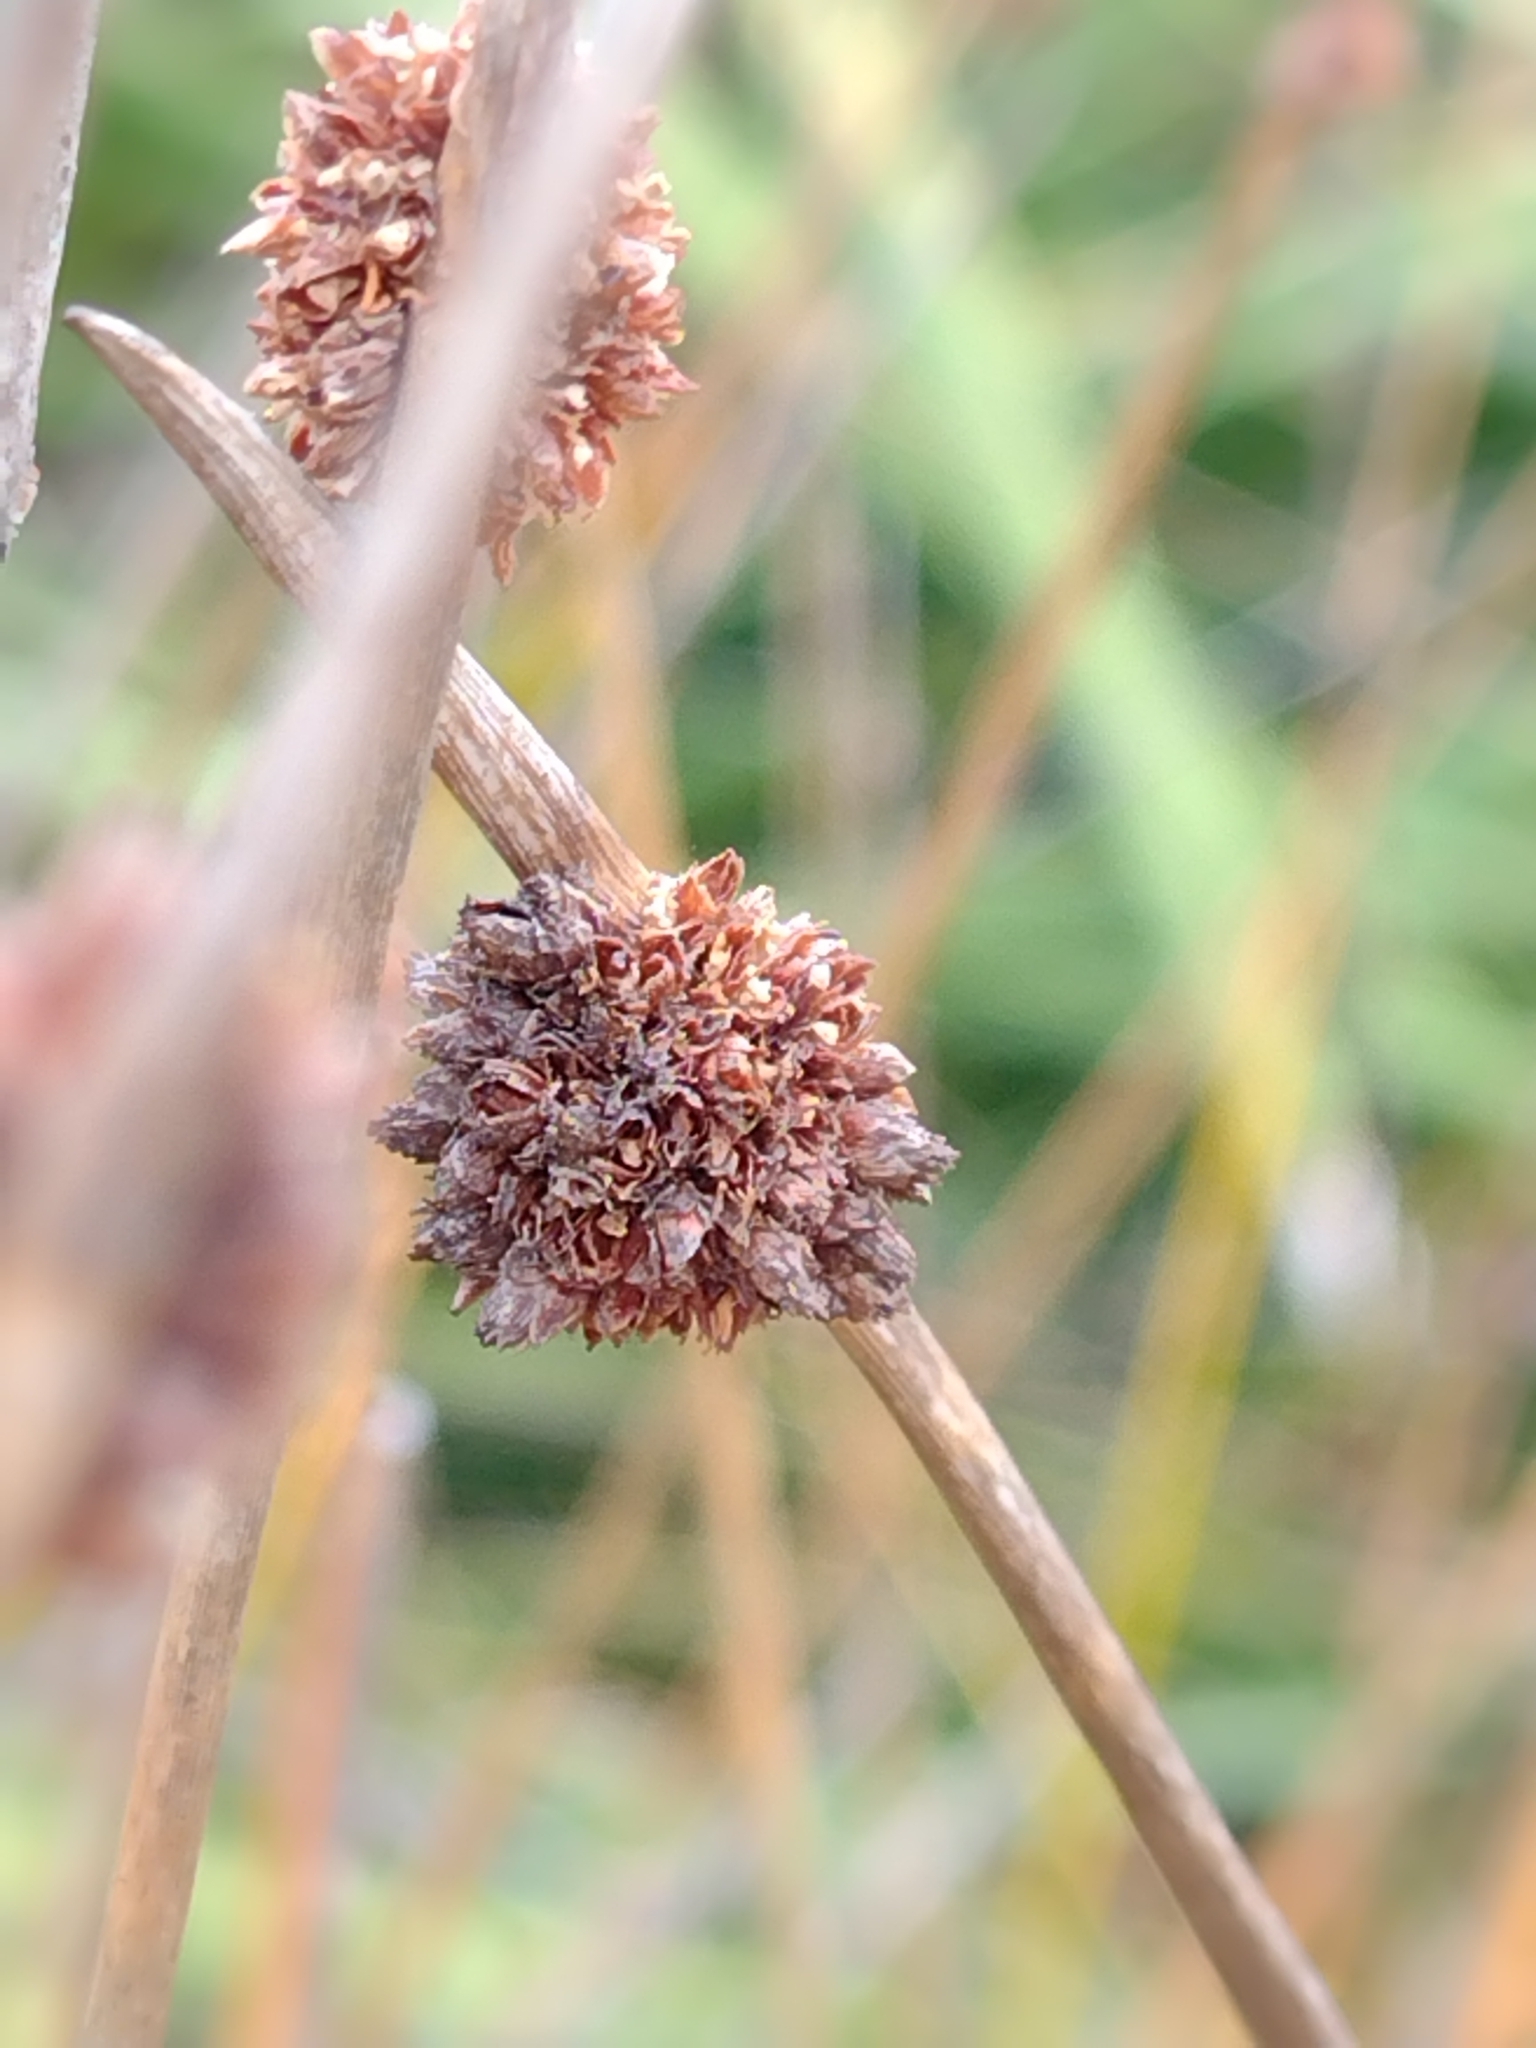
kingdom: Plantae
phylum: Tracheophyta
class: Liliopsida
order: Poales
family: Cyperaceae
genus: Ficinia
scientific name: Ficinia nodosa
